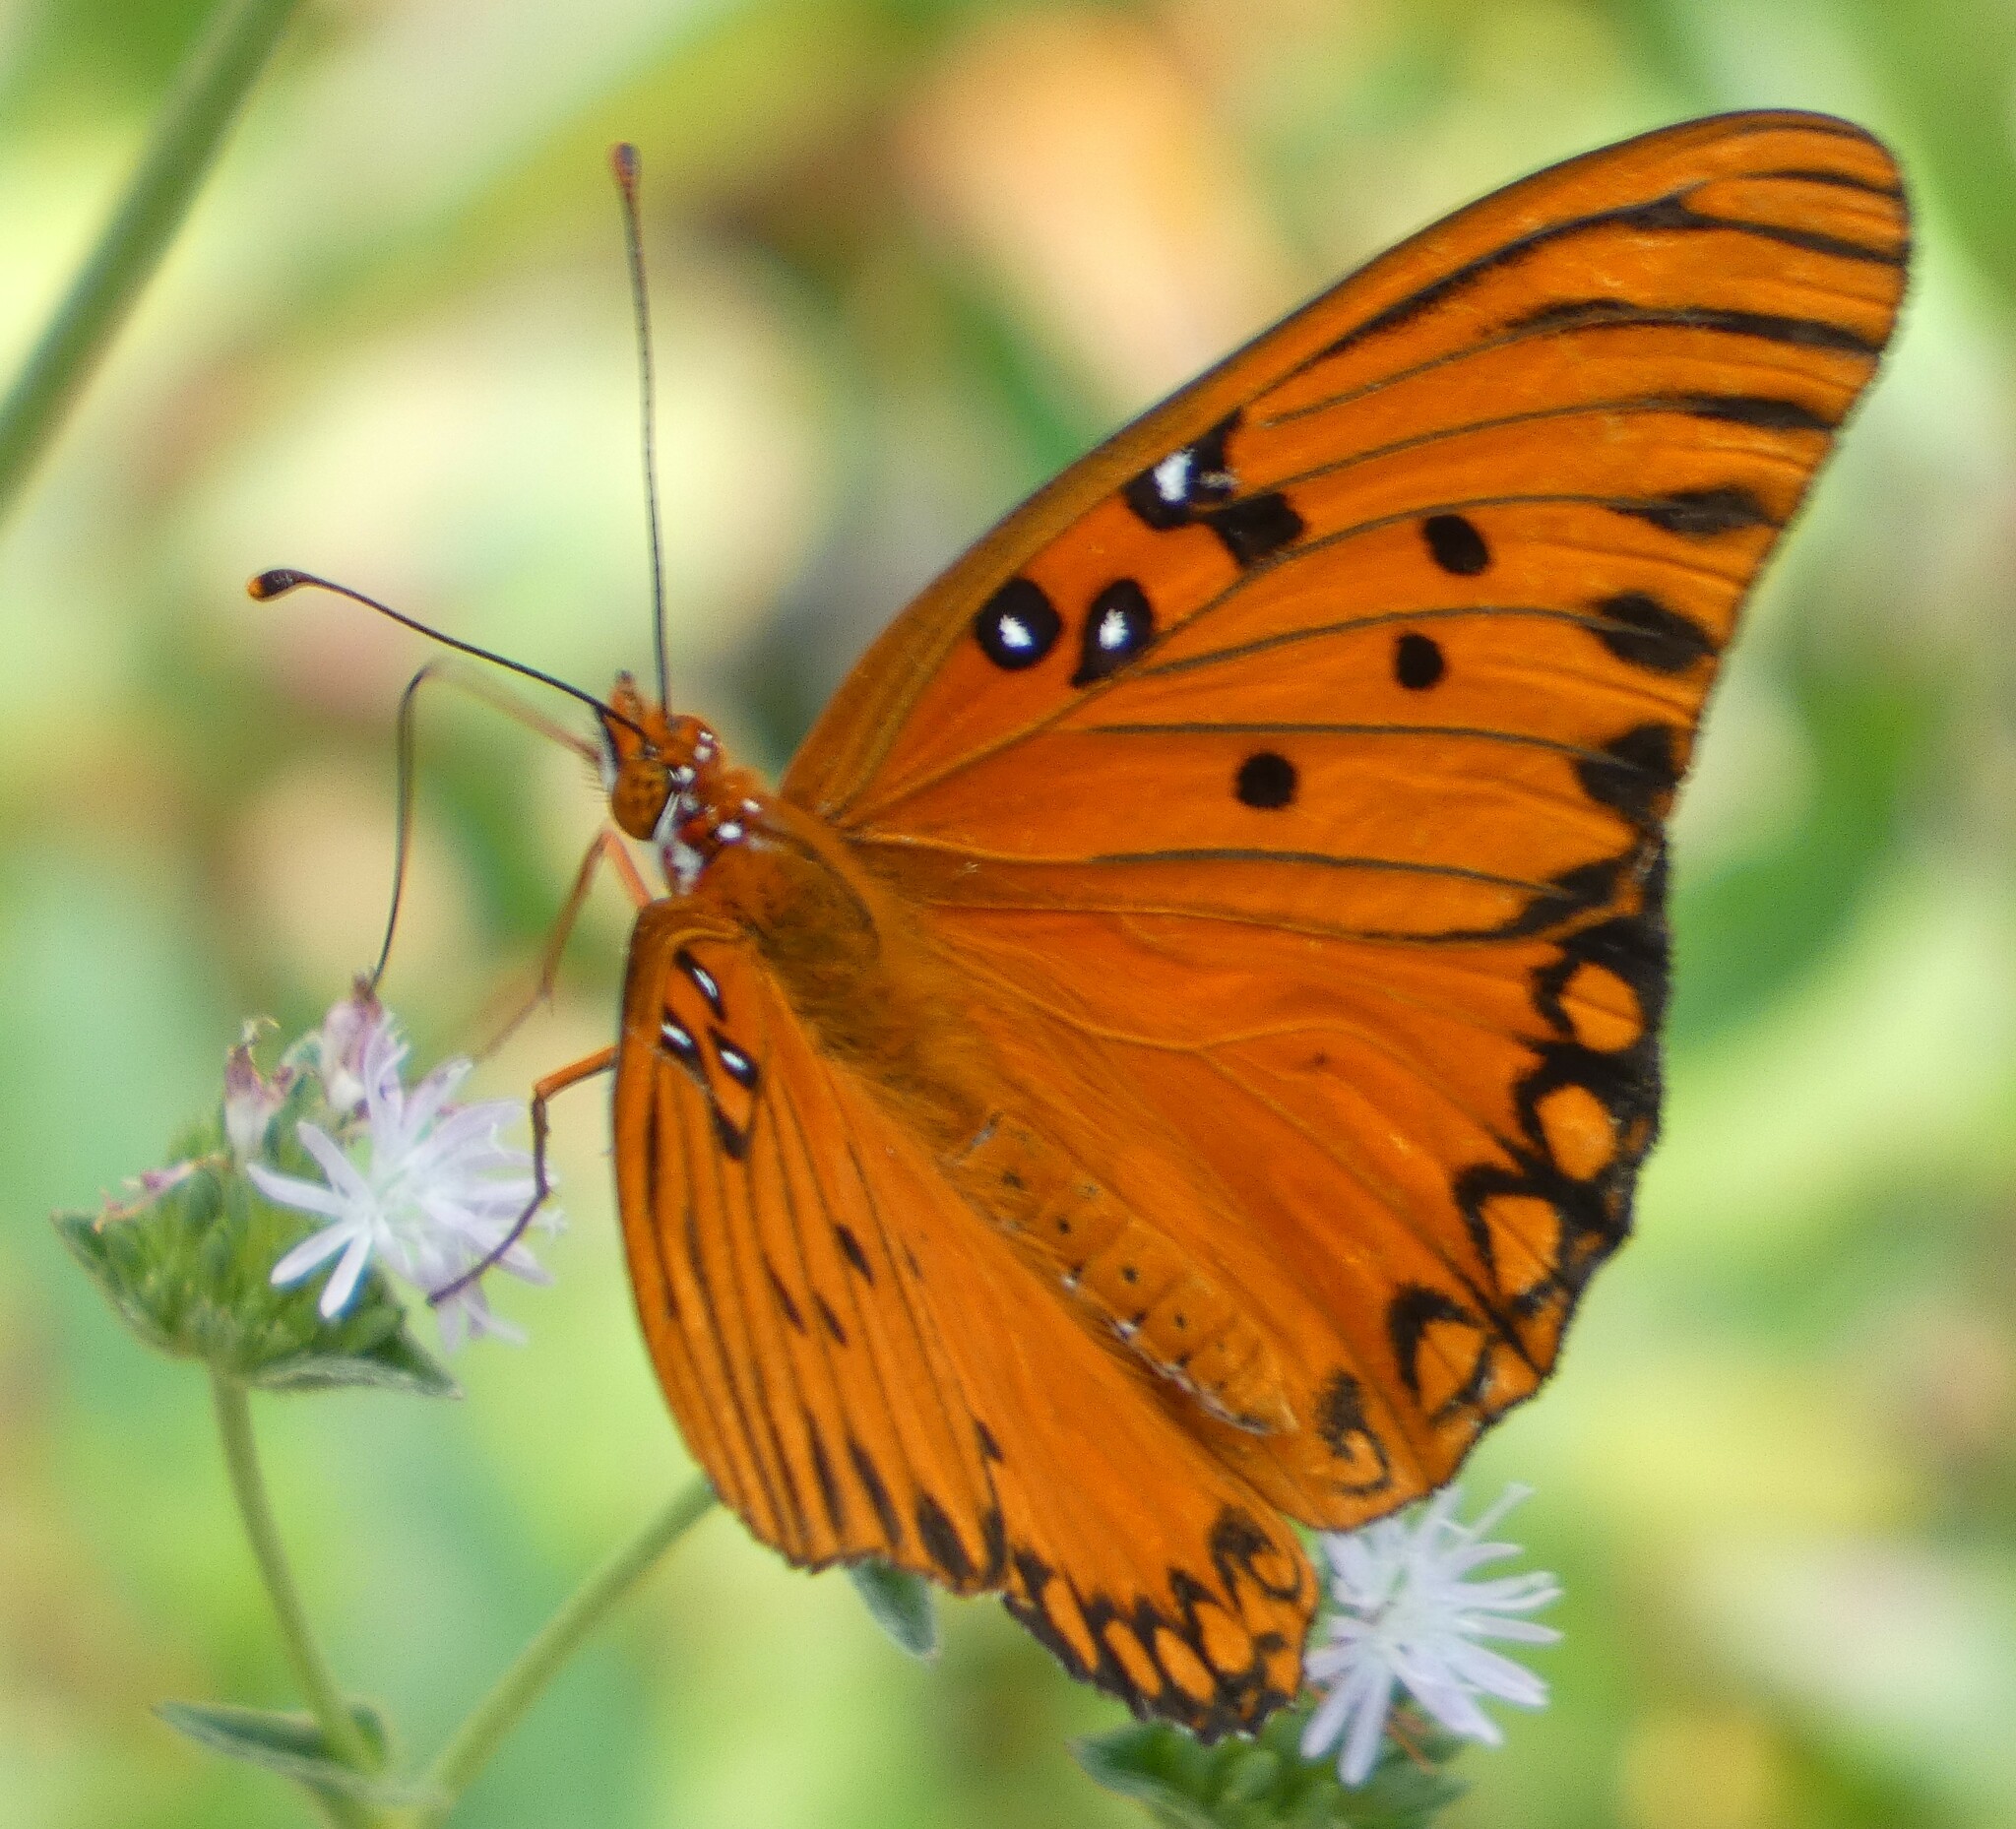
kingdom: Animalia
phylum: Arthropoda
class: Insecta
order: Lepidoptera
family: Nymphalidae
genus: Dione
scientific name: Dione vanillae
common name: Gulf fritillary
